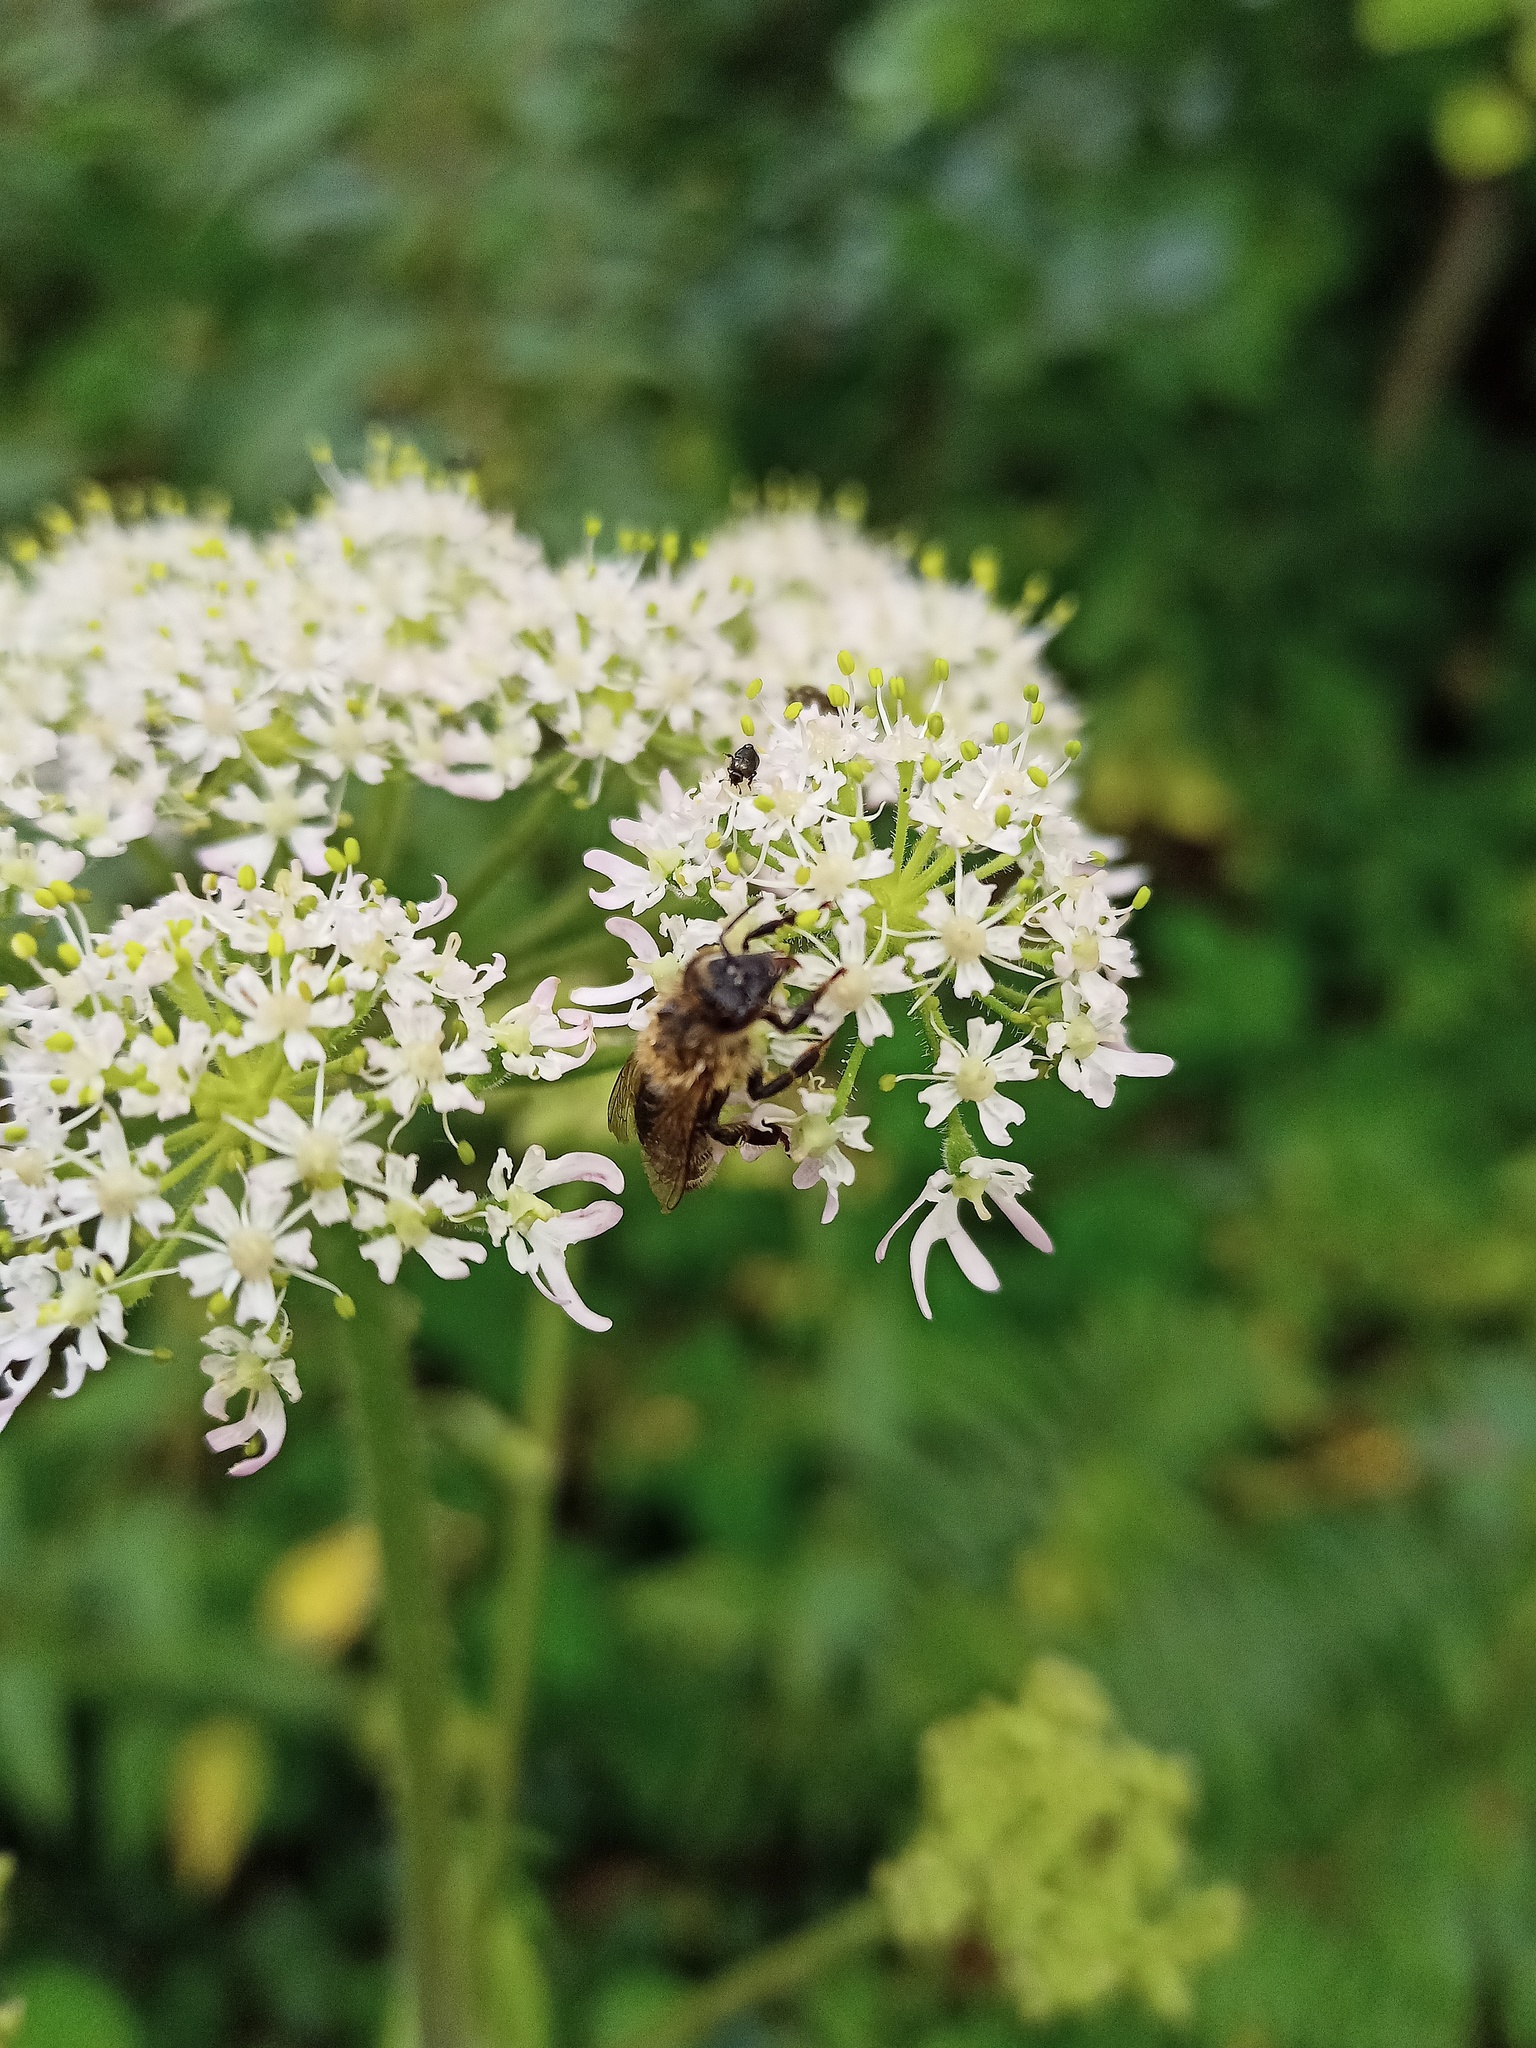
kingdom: Animalia
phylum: Arthropoda
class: Insecta
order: Hymenoptera
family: Apidae
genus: Apis
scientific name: Apis mellifera
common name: Honey bee
